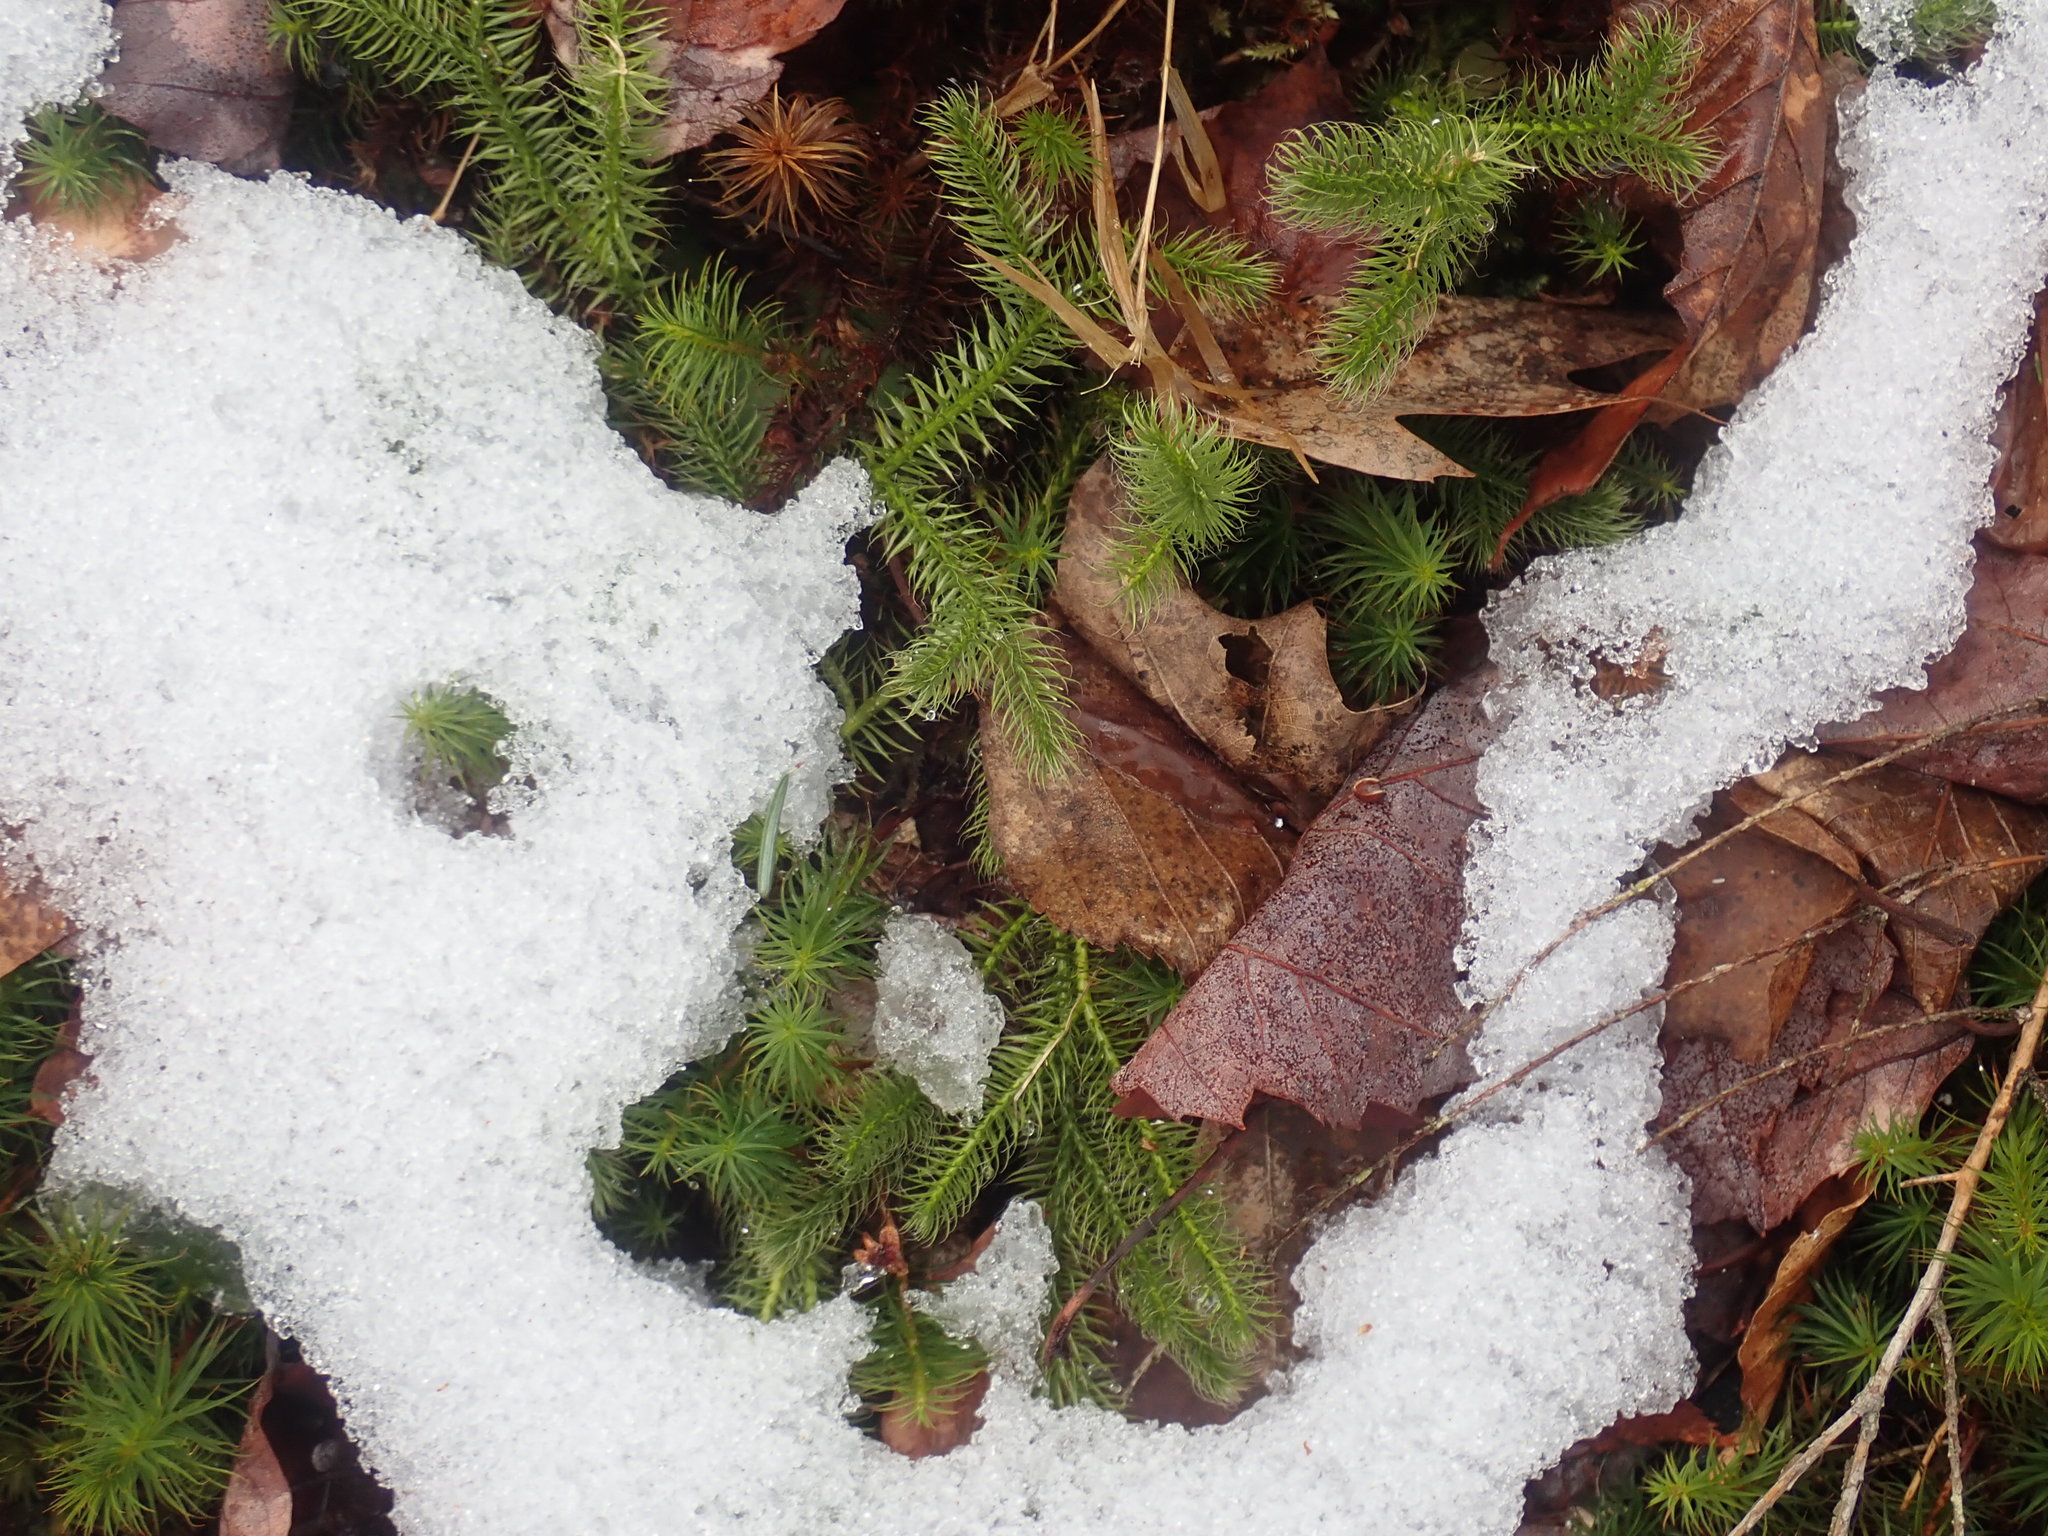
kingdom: Plantae
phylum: Tracheophyta
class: Lycopodiopsida
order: Lycopodiales
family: Lycopodiaceae
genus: Lycopodium
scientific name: Lycopodium clavatum
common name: Stag's-horn clubmoss
